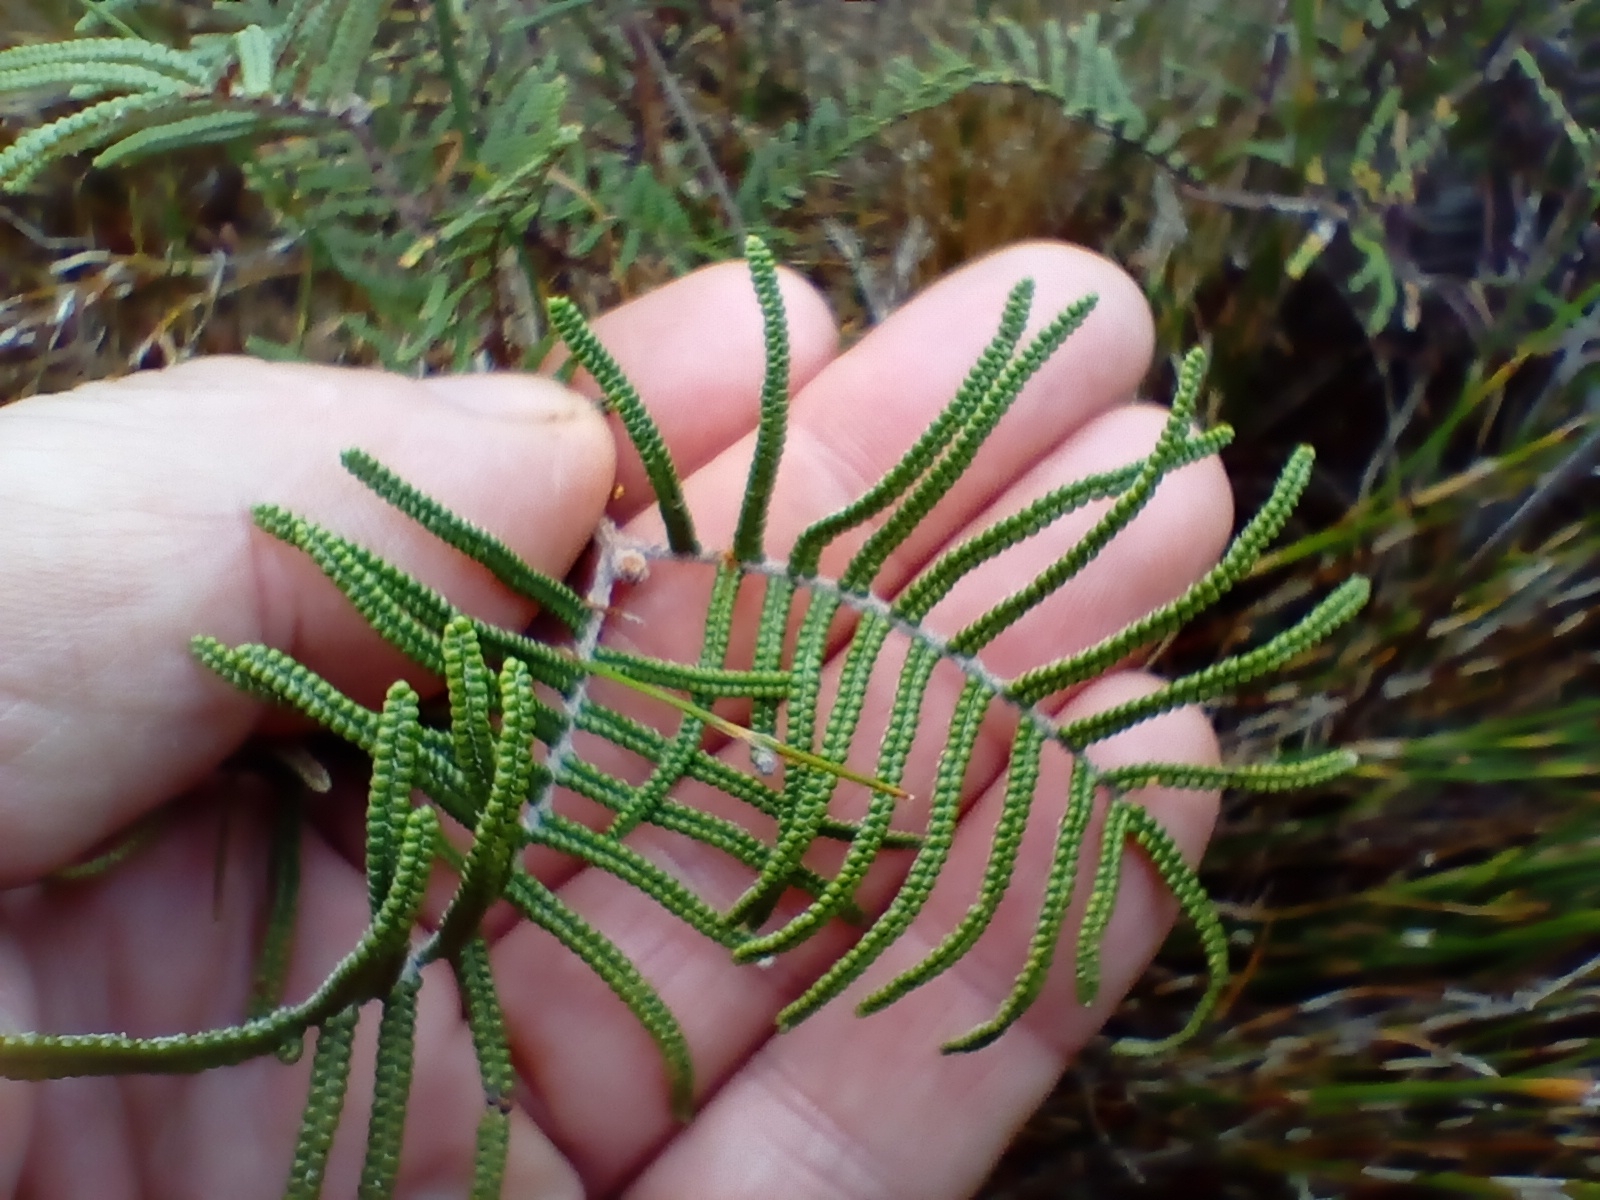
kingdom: Plantae
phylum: Tracheophyta
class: Polypodiopsida
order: Gleicheniales
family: Gleicheniaceae
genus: Gleichenia
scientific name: Gleichenia alpina
